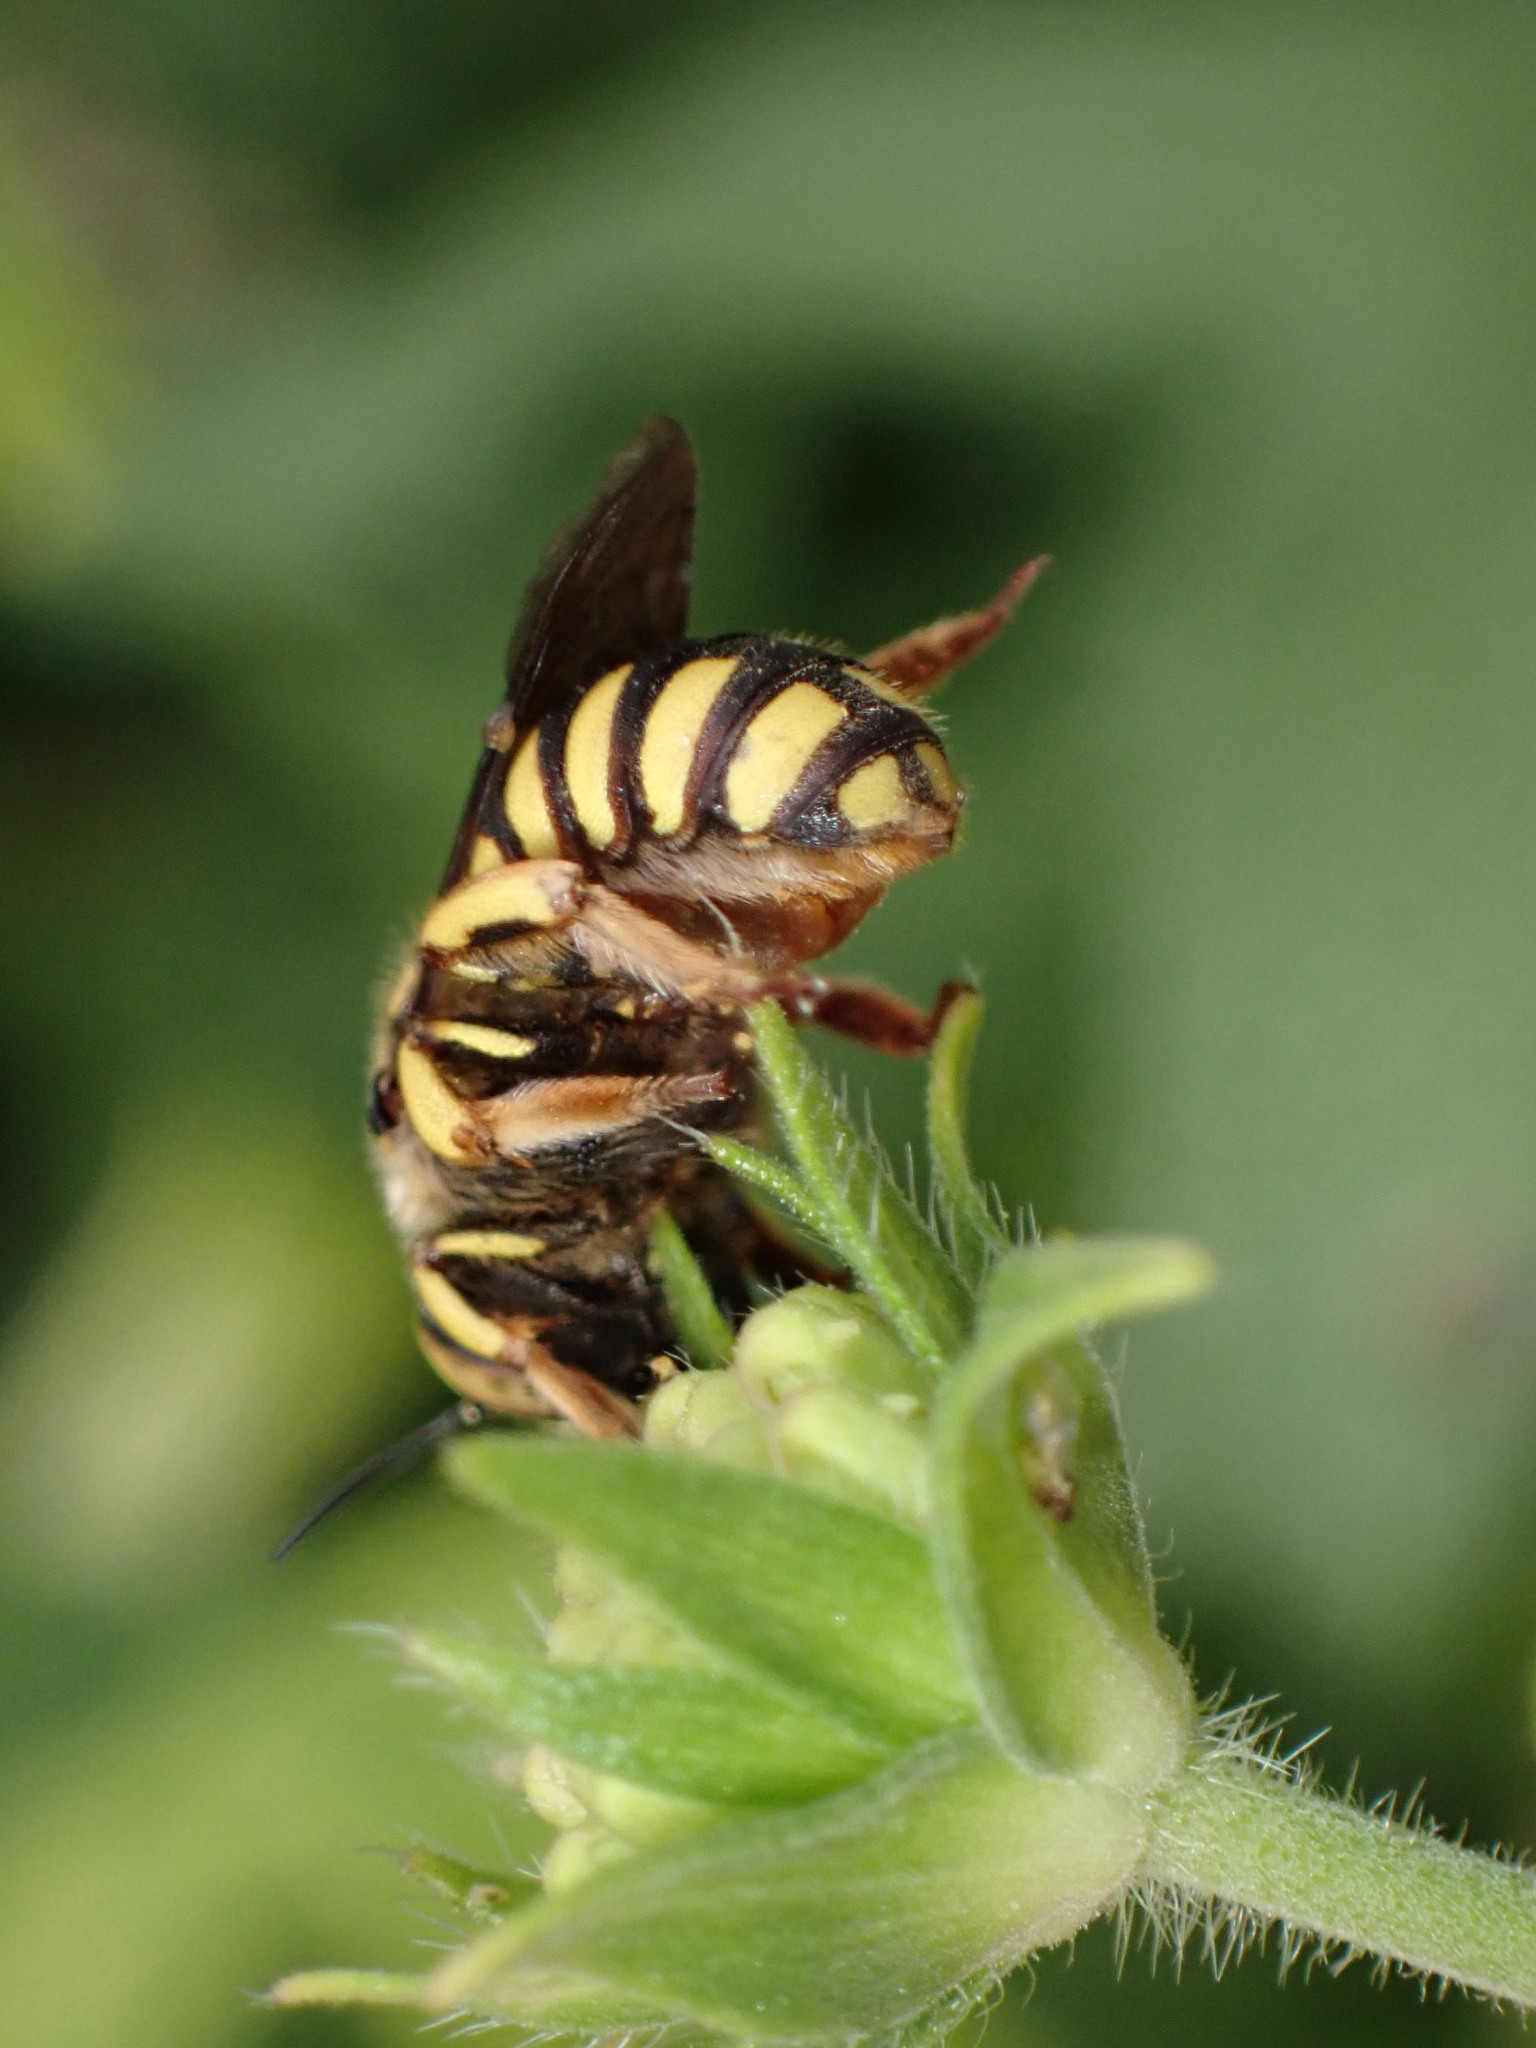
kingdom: Animalia
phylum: Arthropoda
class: Insecta
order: Hymenoptera
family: Megachilidae
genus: Anthidium
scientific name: Anthidium florentinum
